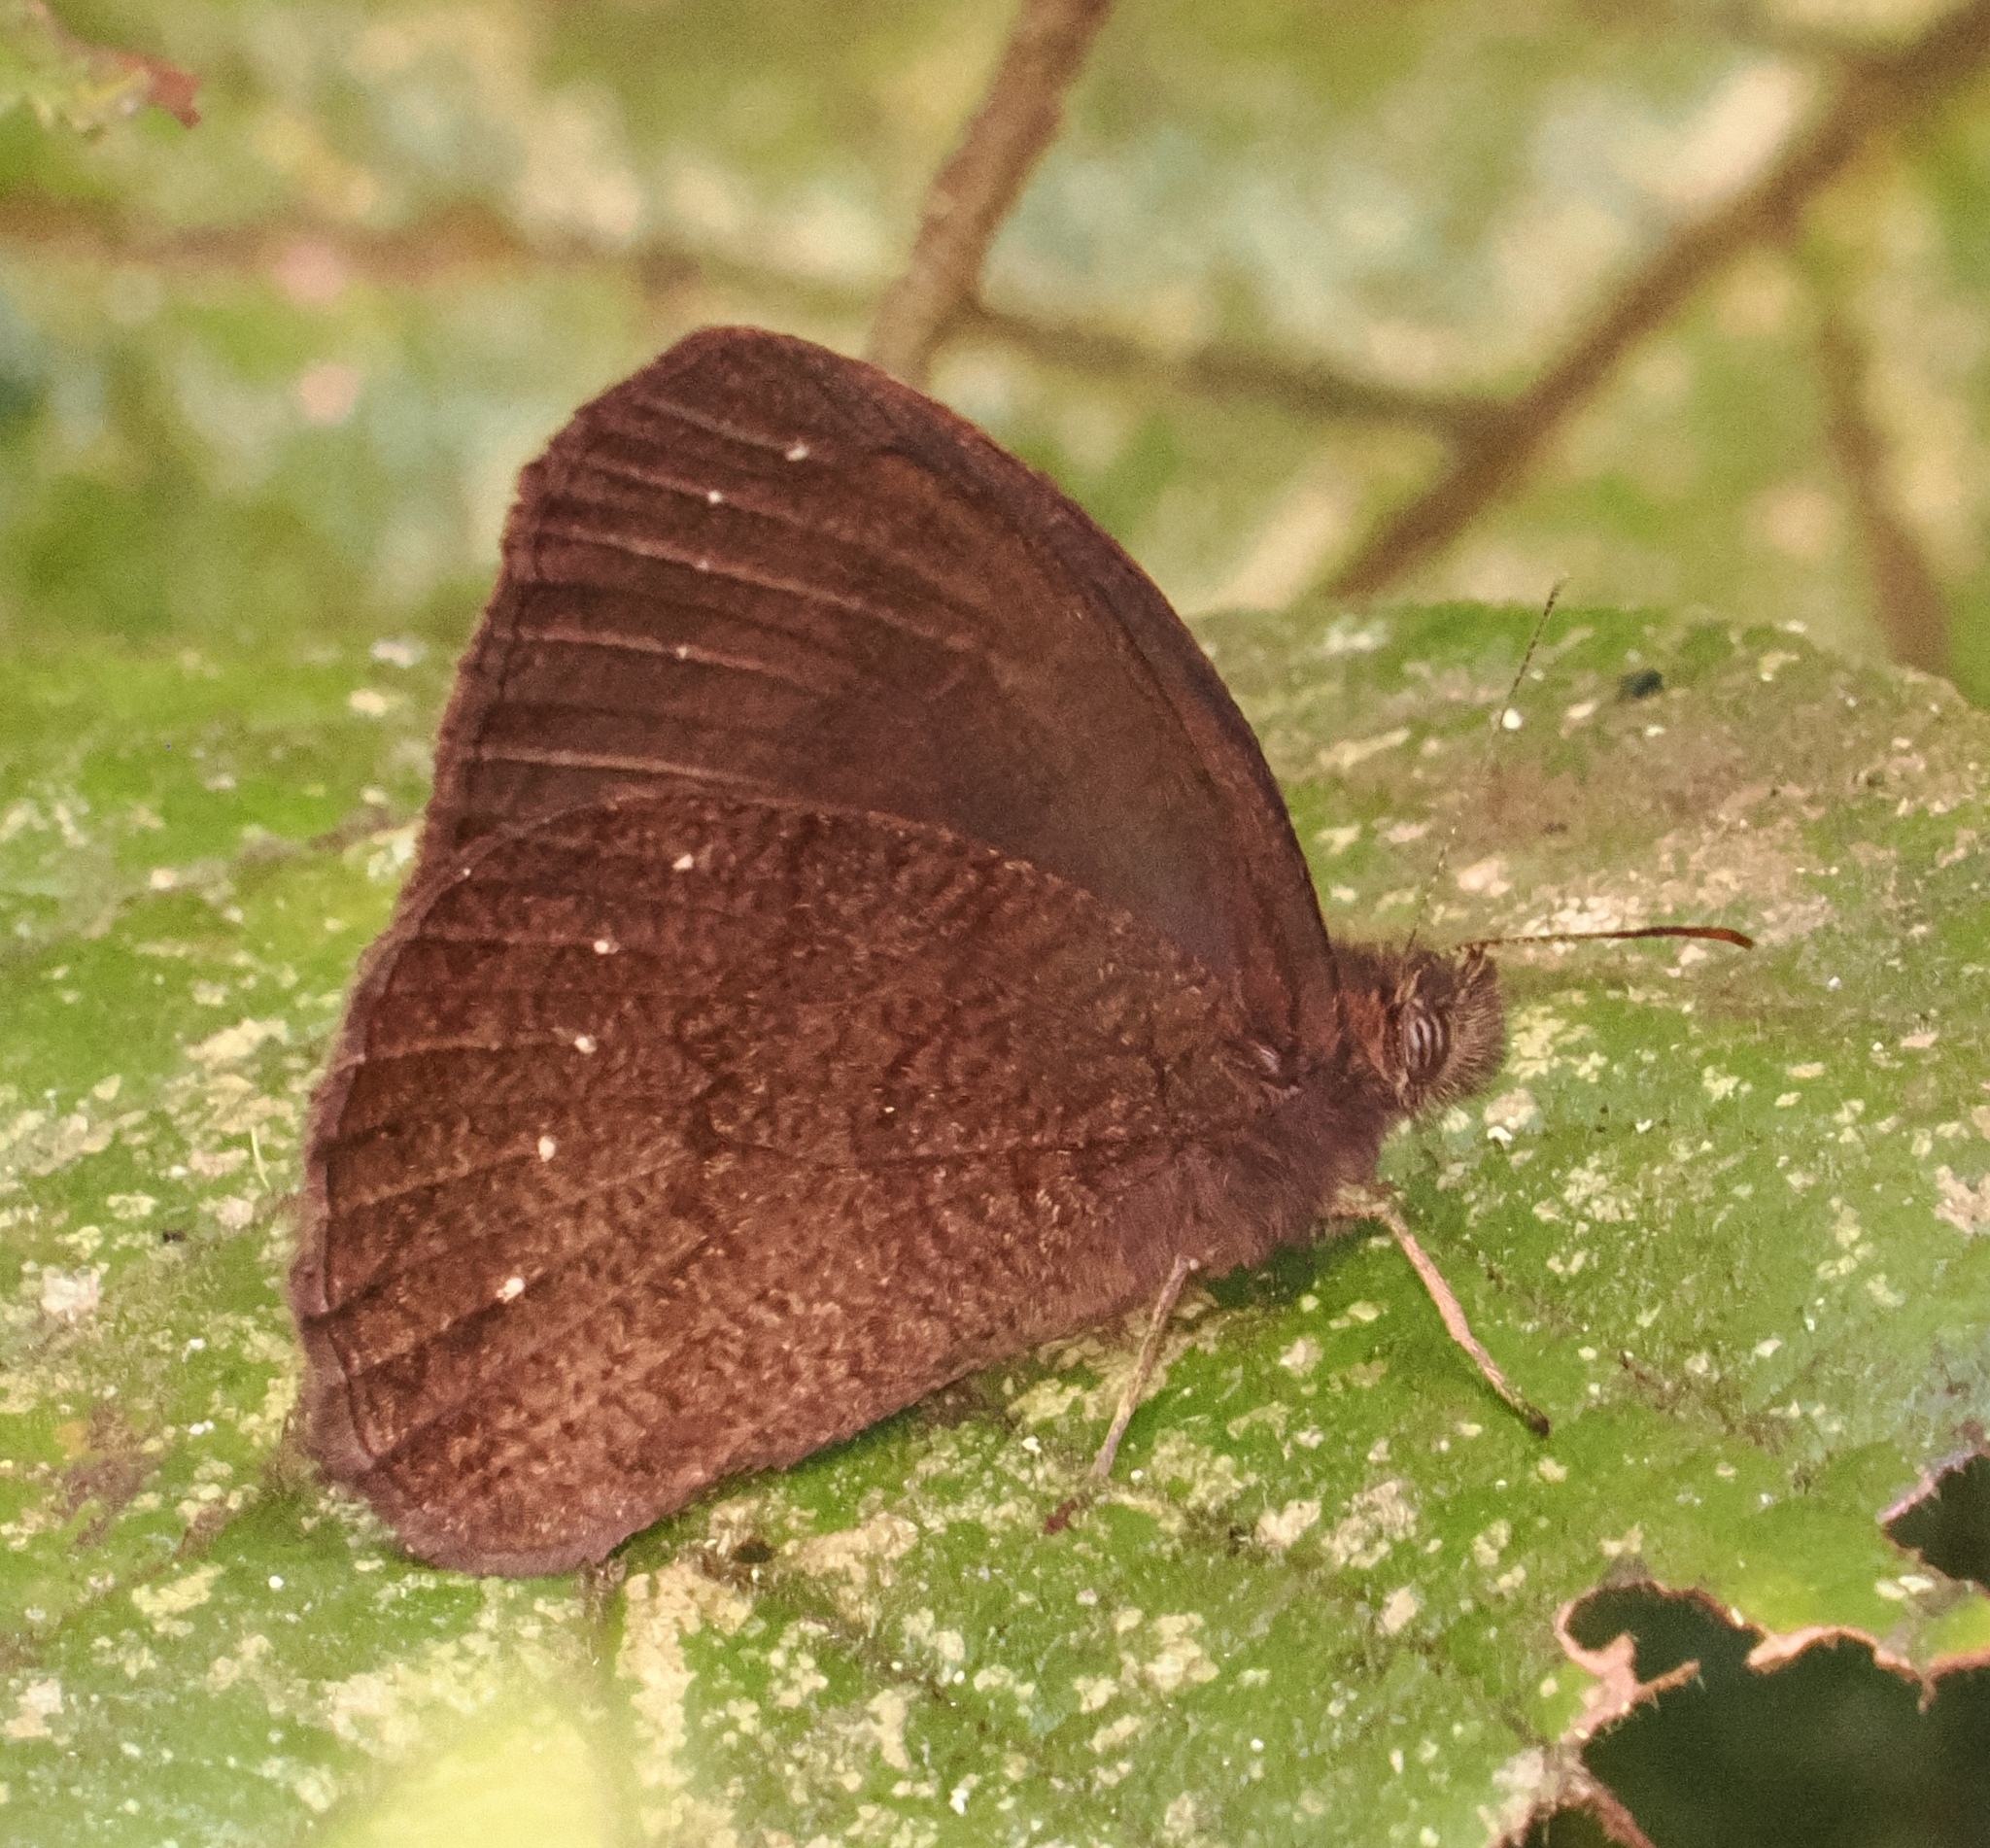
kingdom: Animalia
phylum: Arthropoda
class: Insecta
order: Lepidoptera
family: Nymphalidae
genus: Forsterinaria
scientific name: Forsterinaria necys
